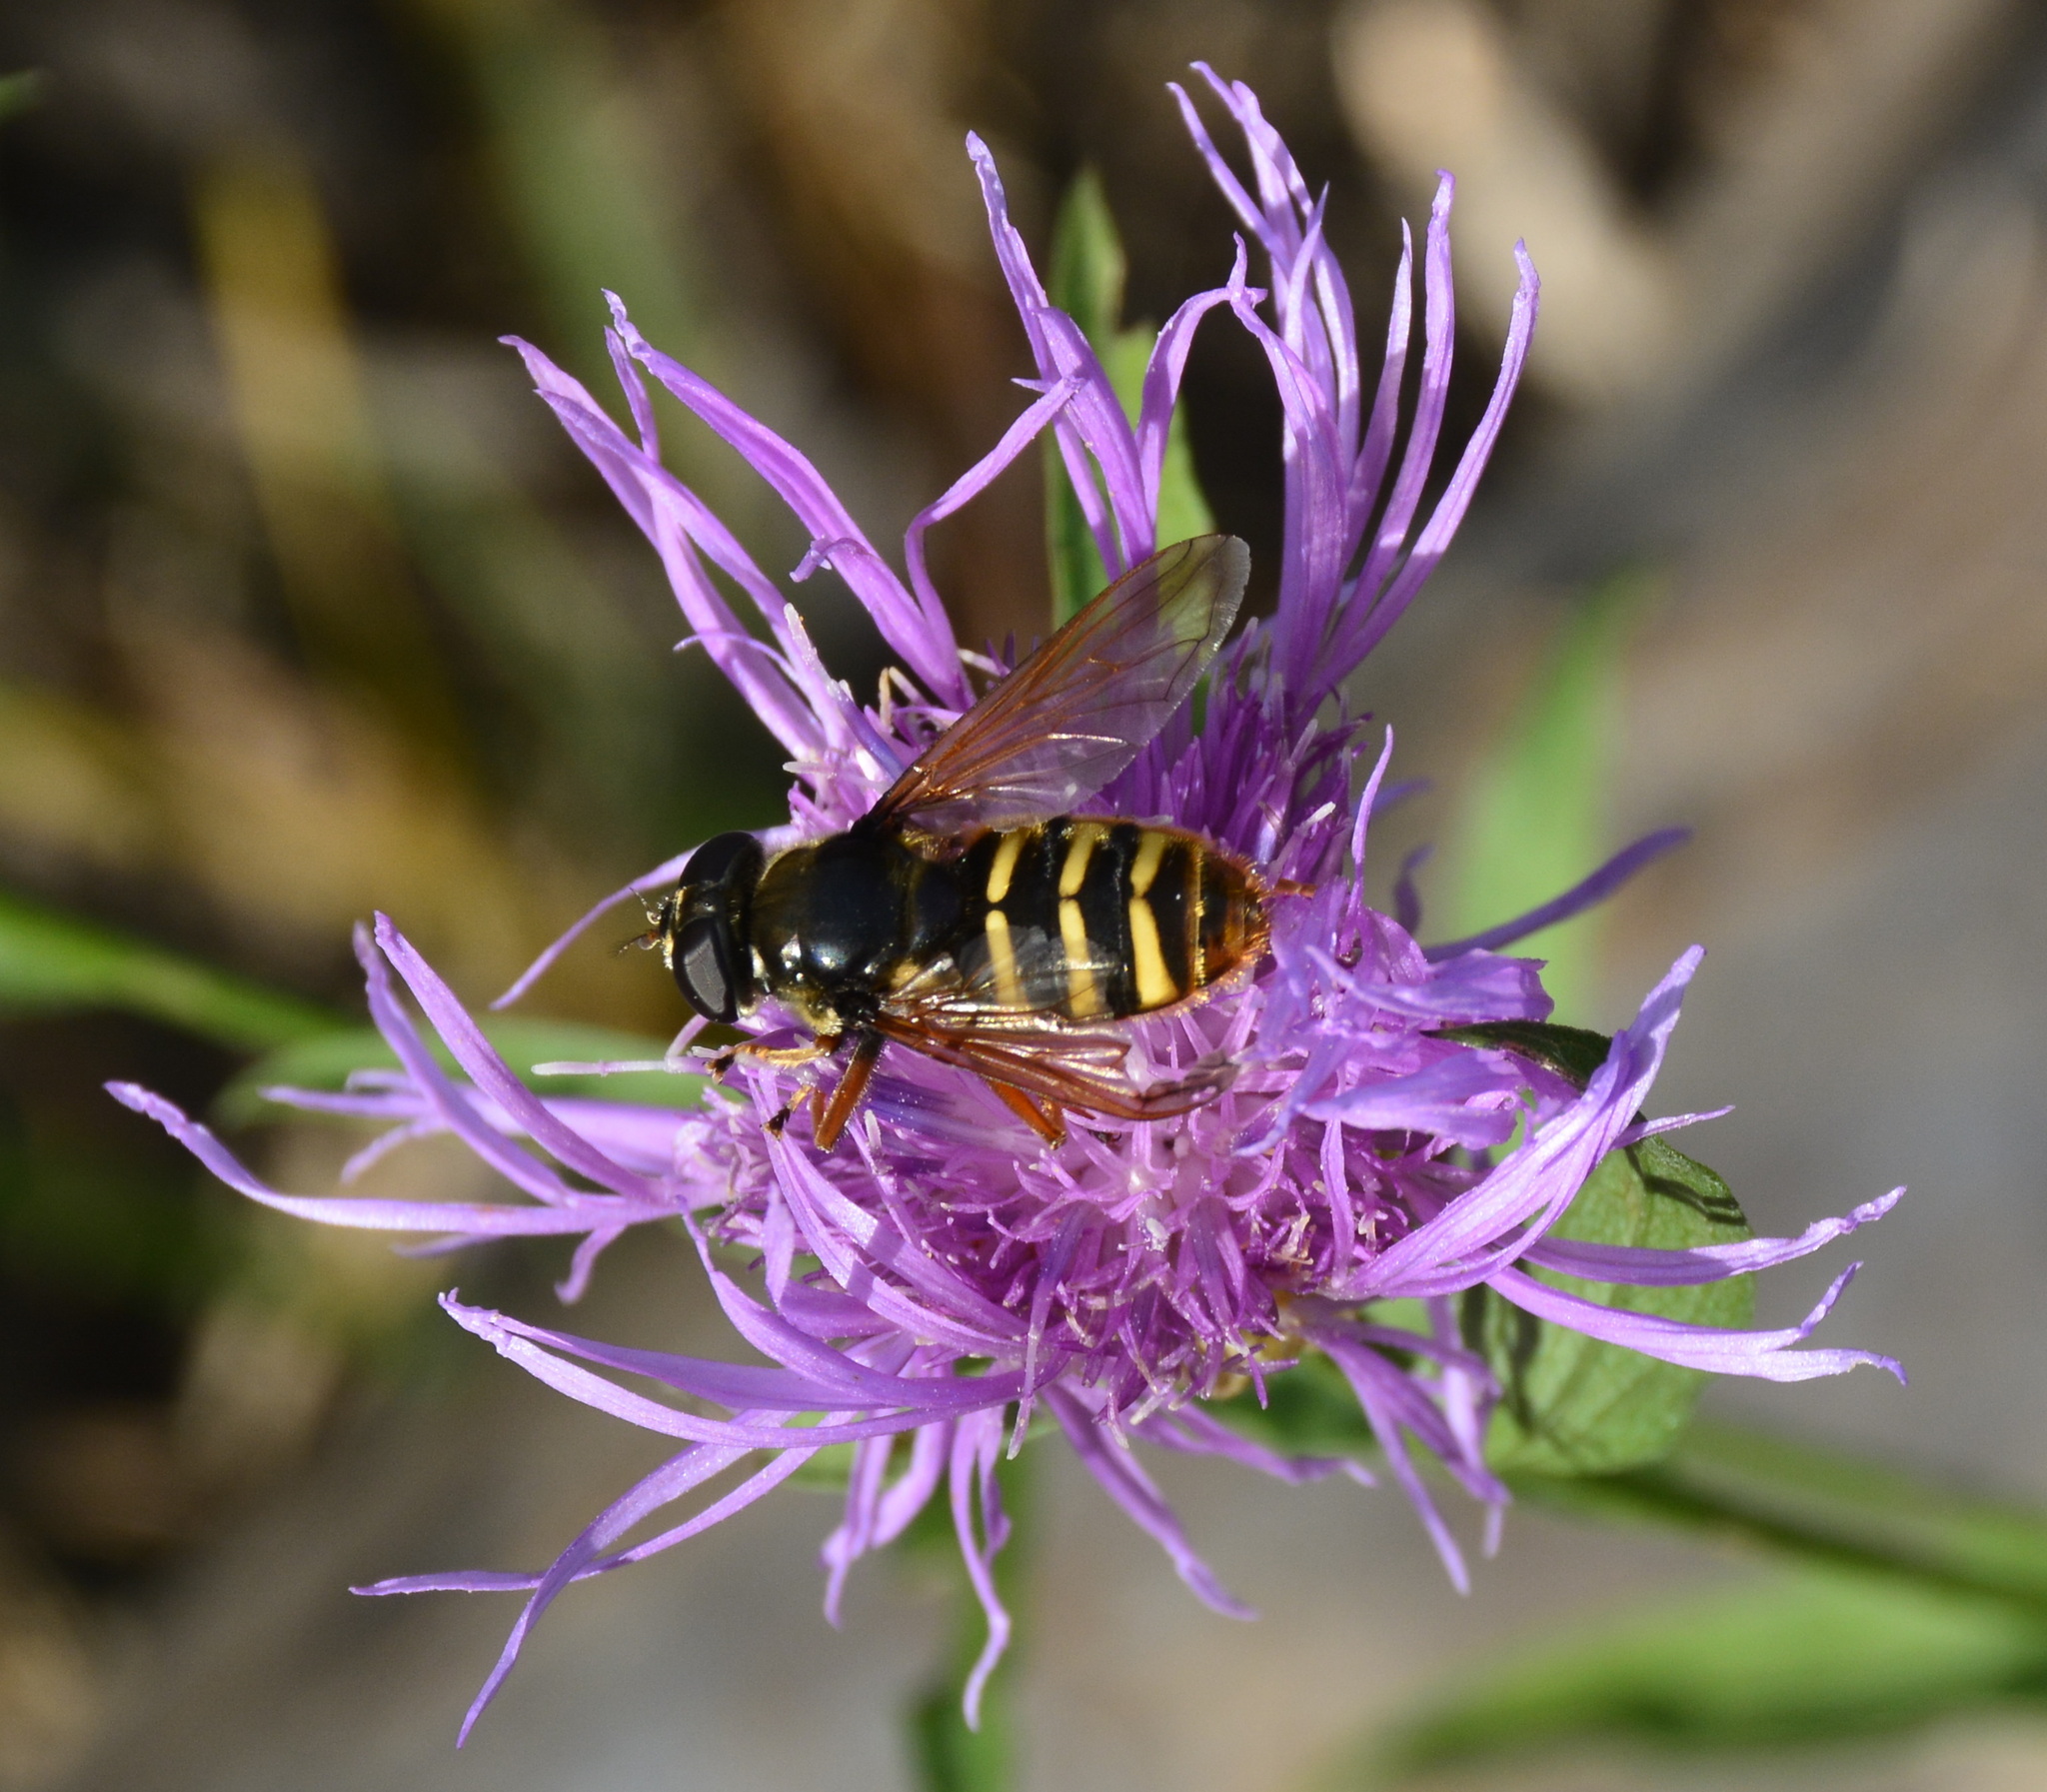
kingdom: Animalia
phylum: Arthropoda
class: Insecta
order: Diptera
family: Syrphidae
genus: Sericomyia
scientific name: Sericomyia silentis
